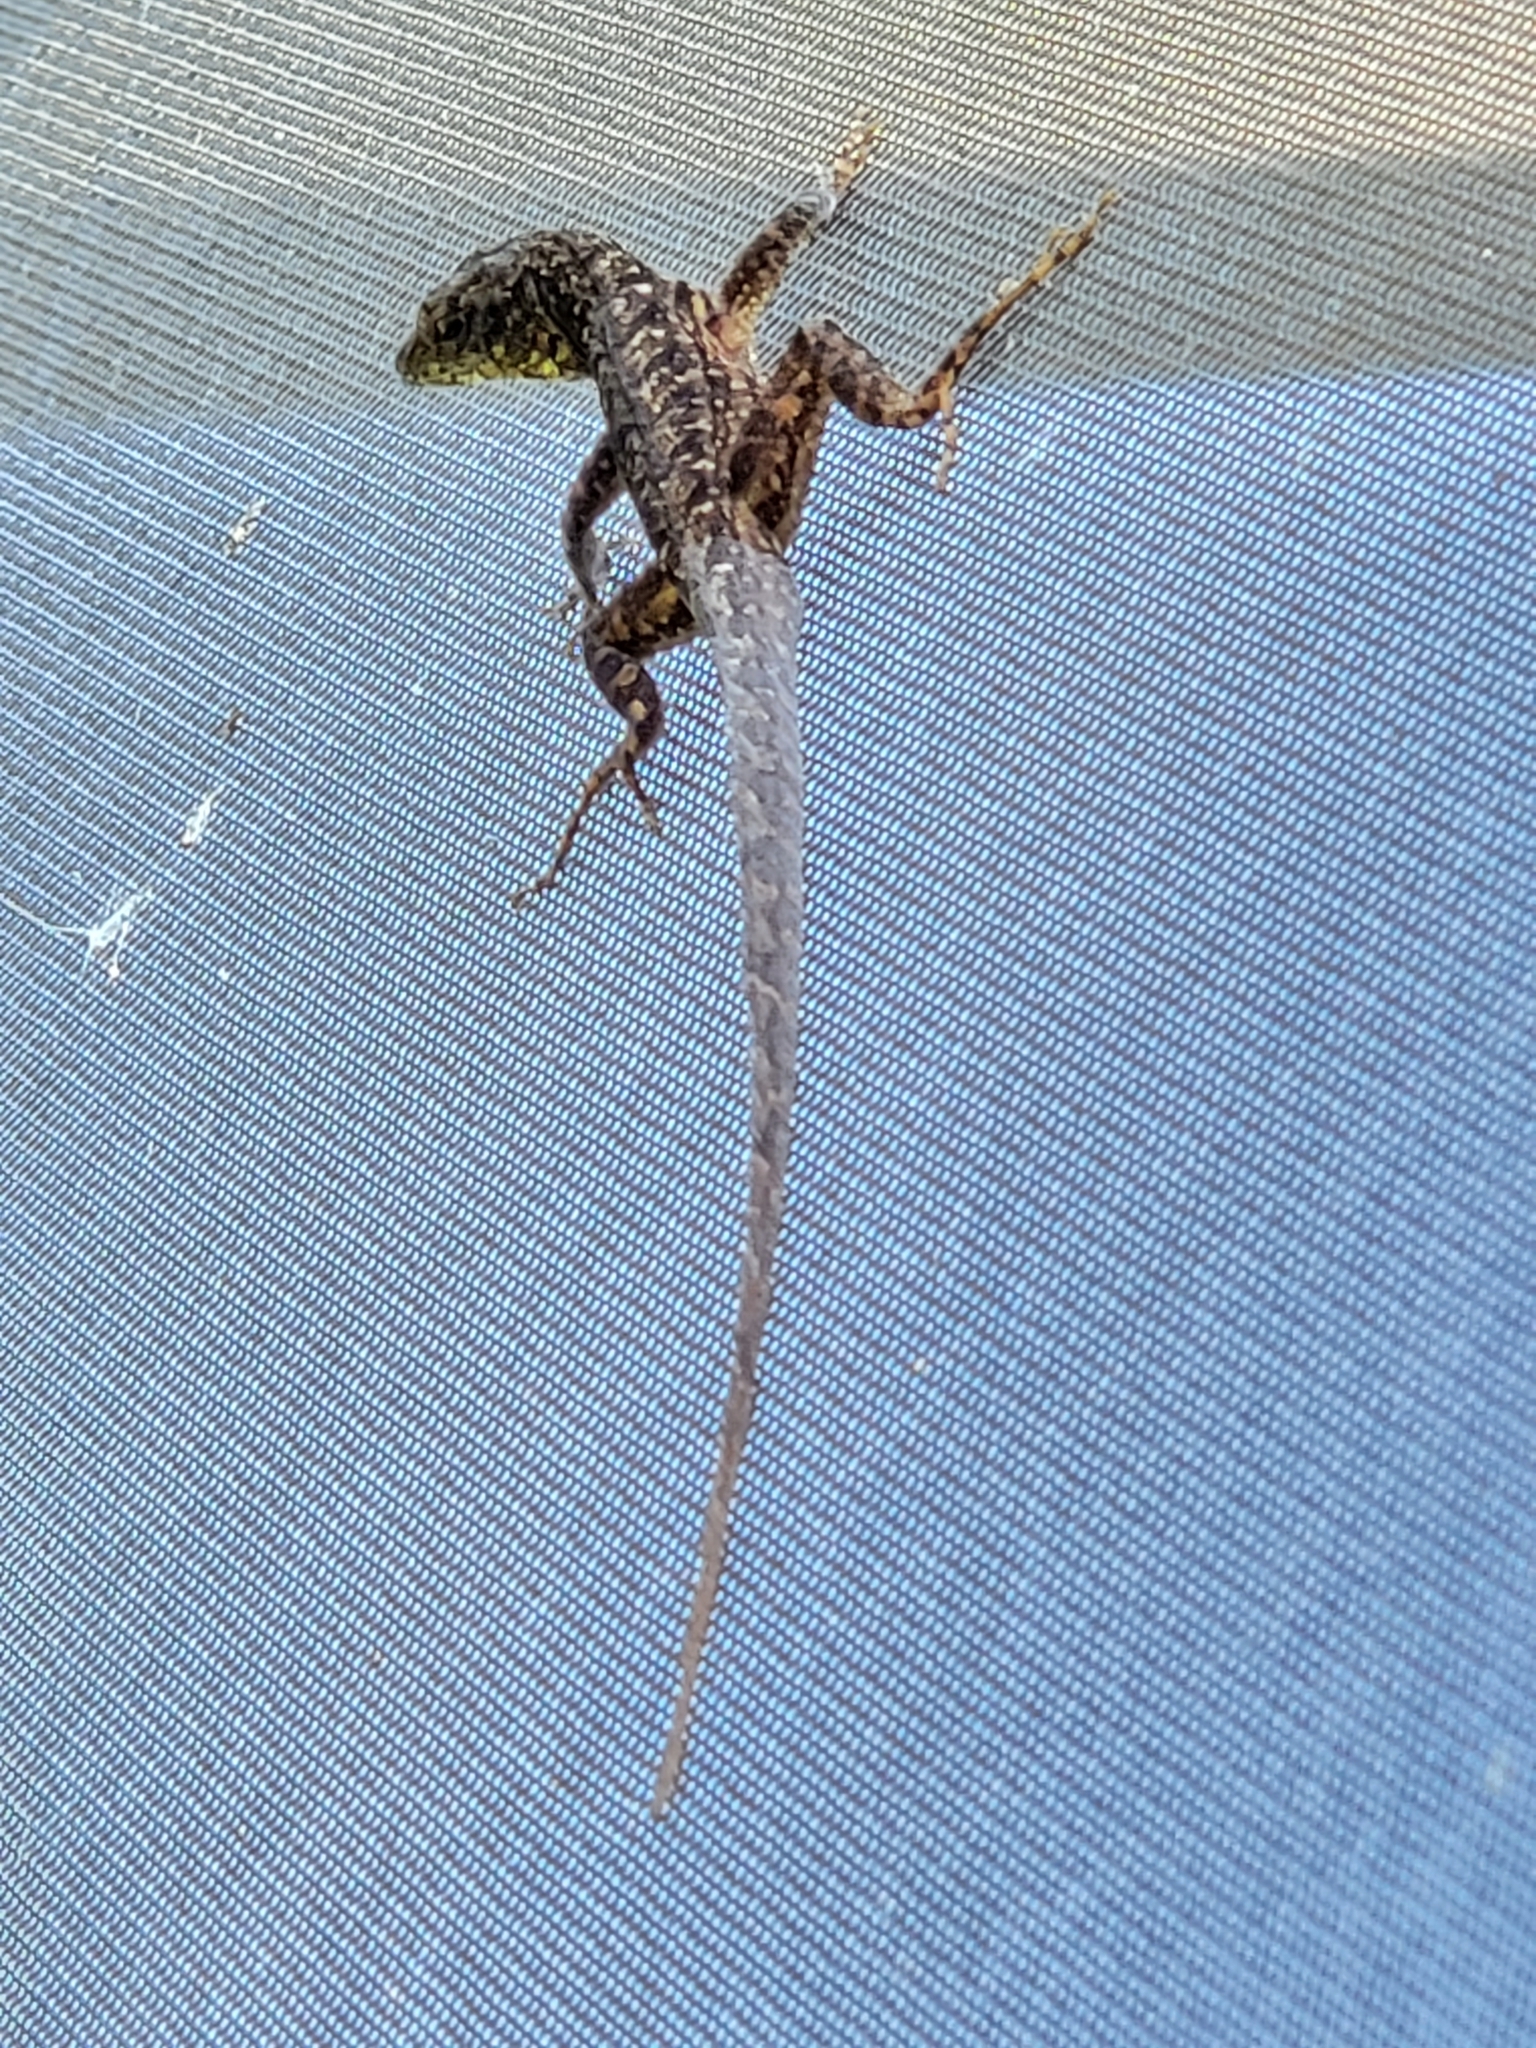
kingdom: Animalia
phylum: Chordata
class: Squamata
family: Dactyloidae
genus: Anolis
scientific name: Anolis sagrei
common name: Brown anole
